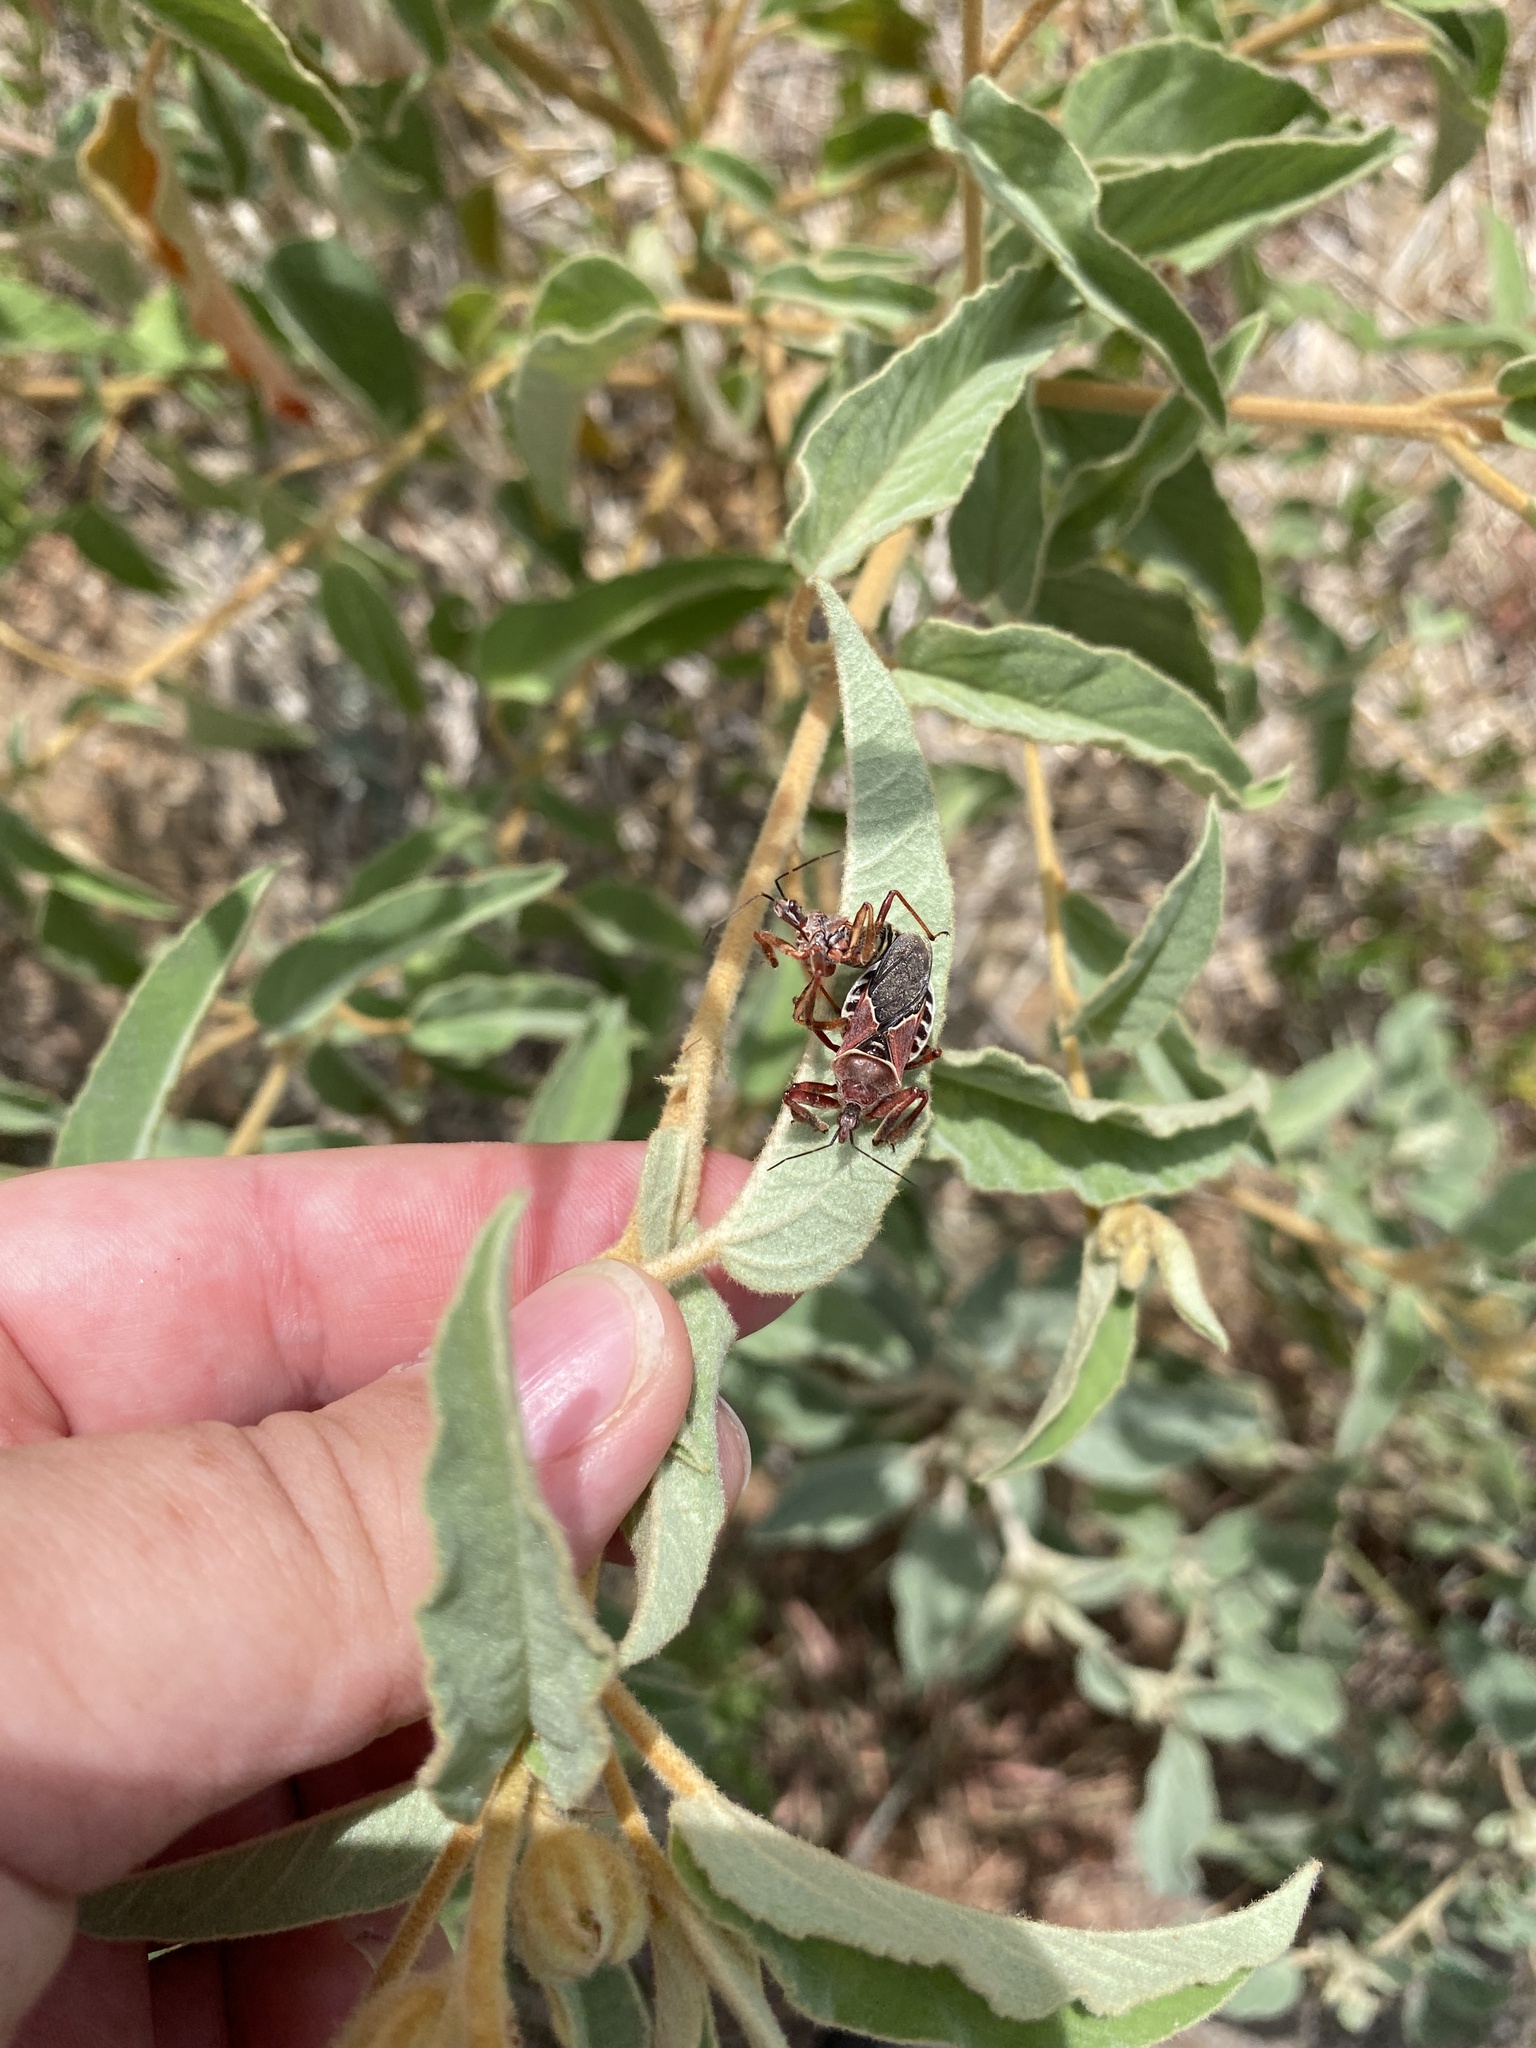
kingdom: Animalia
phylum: Arthropoda
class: Insecta
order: Hemiptera
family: Reduviidae
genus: Apiomerus
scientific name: Apiomerus spissipes
